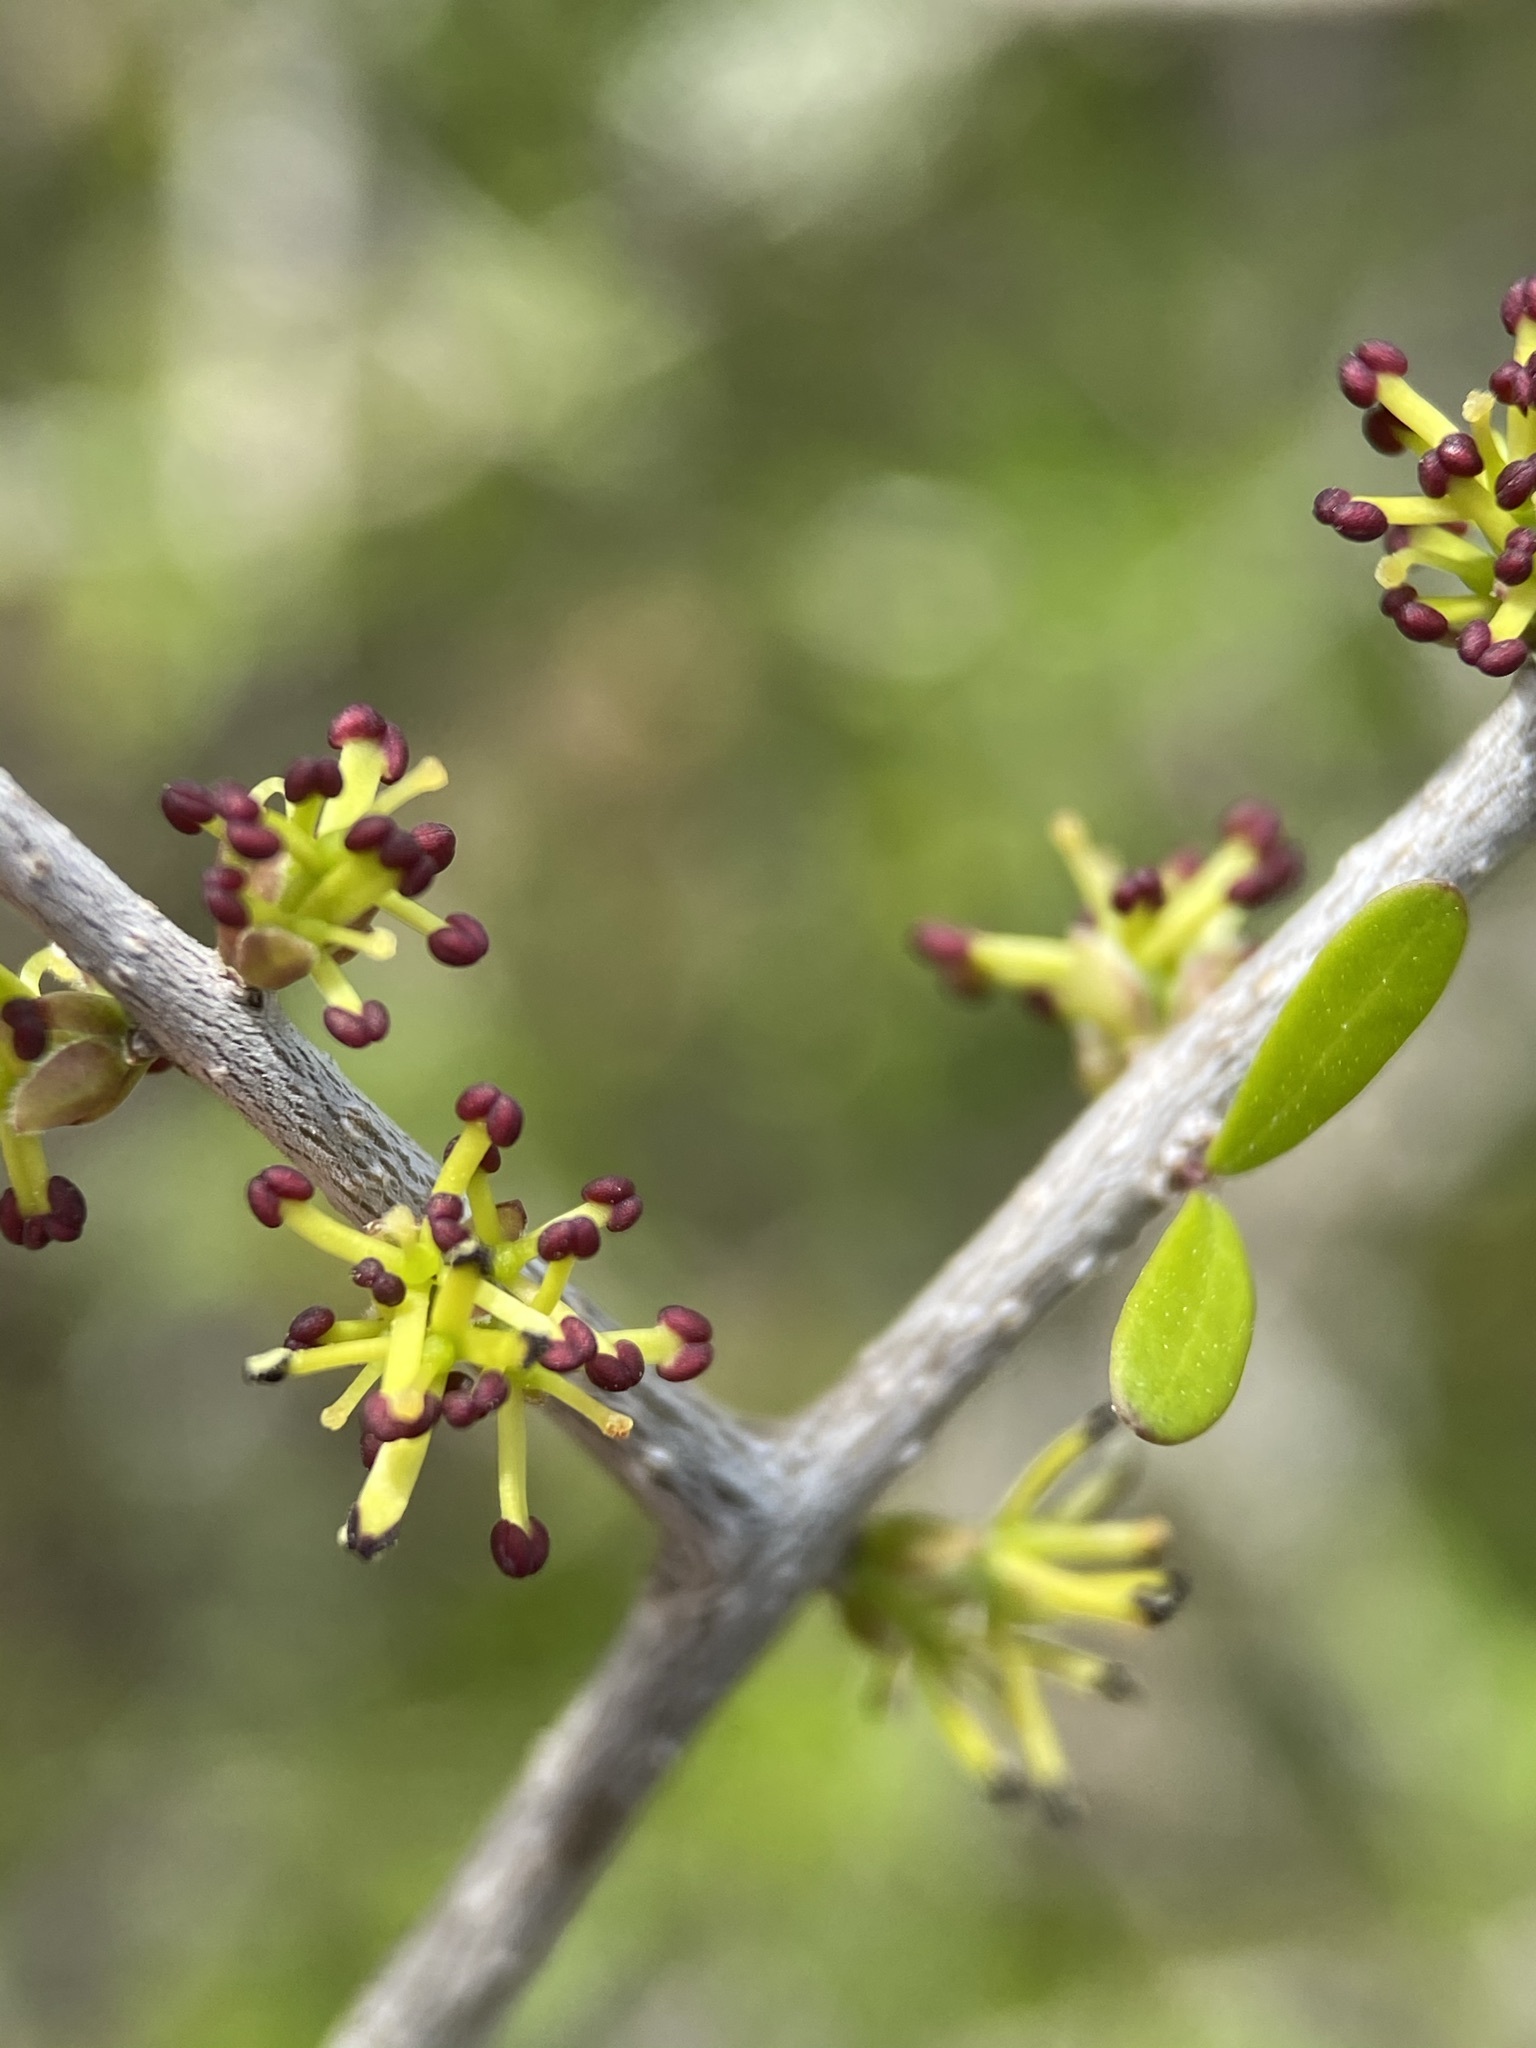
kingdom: Plantae
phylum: Tracheophyta
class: Magnoliopsida
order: Lamiales
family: Oleaceae
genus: Forestiera
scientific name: Forestiera angustifolia
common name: Elbowbush
